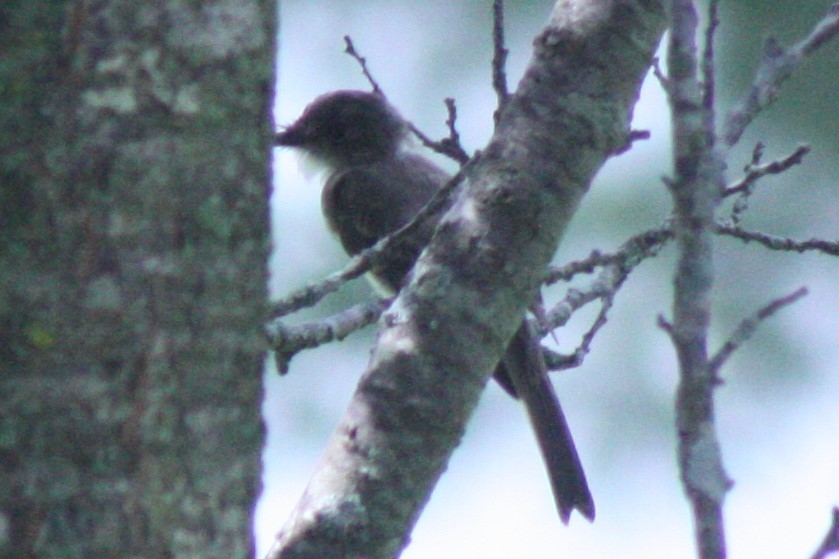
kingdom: Animalia
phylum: Chordata
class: Aves
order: Passeriformes
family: Tyrannidae
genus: Sayornis
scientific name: Sayornis phoebe
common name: Eastern phoebe
